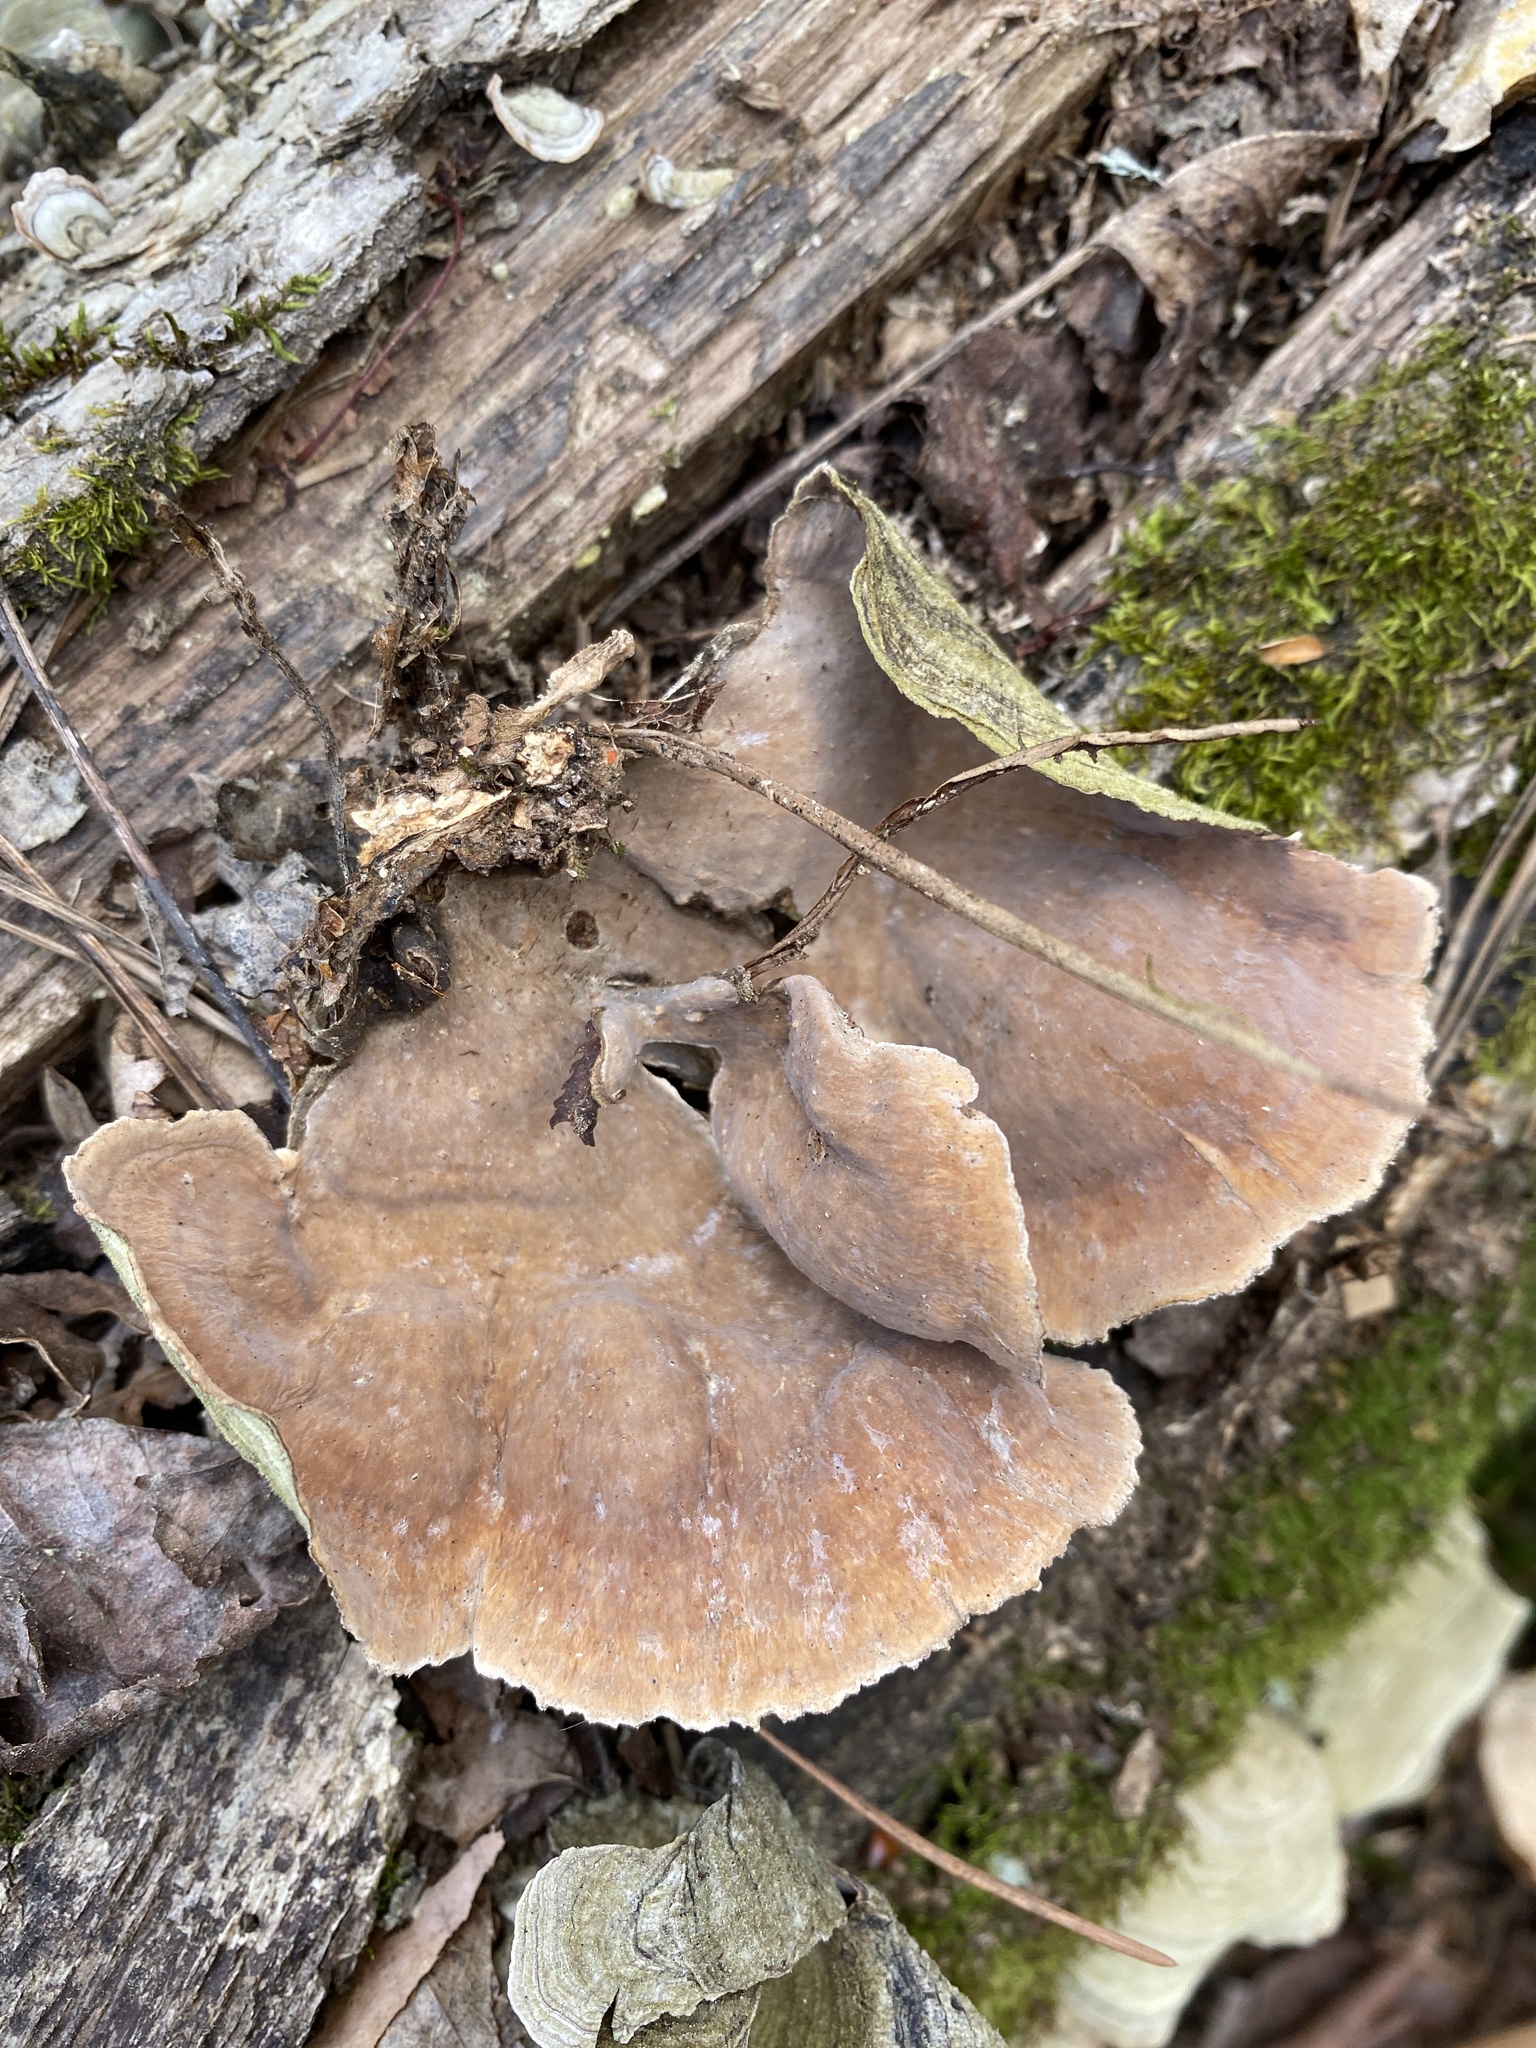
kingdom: Fungi
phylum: Basidiomycota
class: Agaricomycetes
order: Russulales
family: Stereaceae
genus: Stereum
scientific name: Stereum ostrea
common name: False turkeytail
